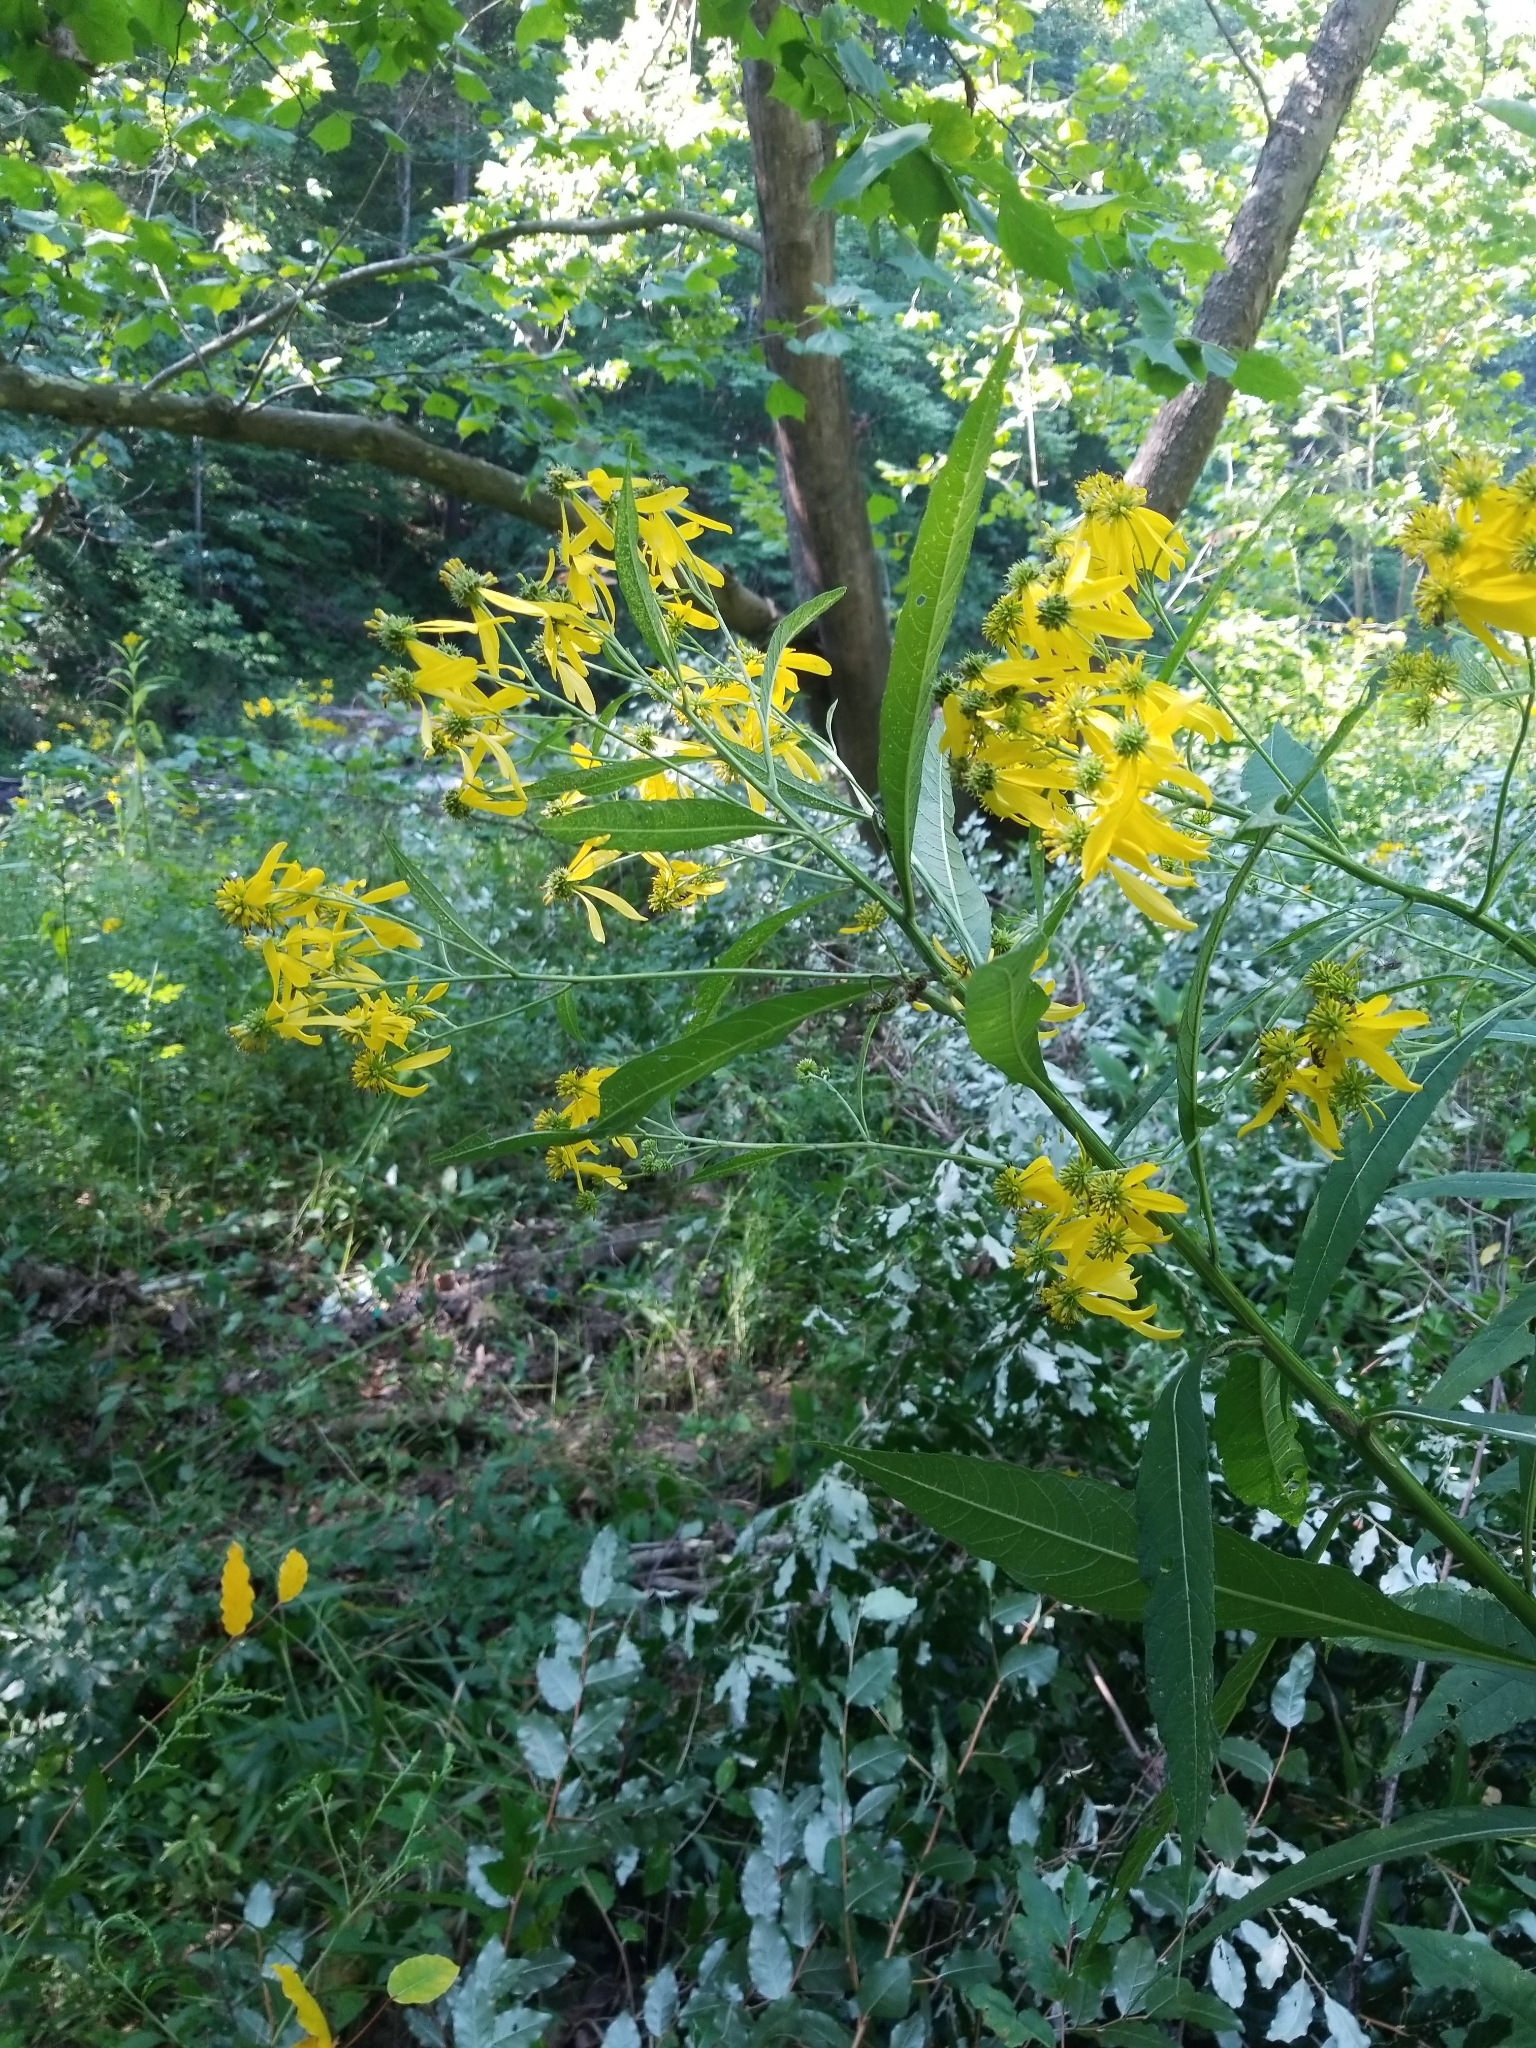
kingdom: Plantae
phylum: Tracheophyta
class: Magnoliopsida
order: Asterales
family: Asteraceae
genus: Verbesina
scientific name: Verbesina alternifolia
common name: Wingstem
